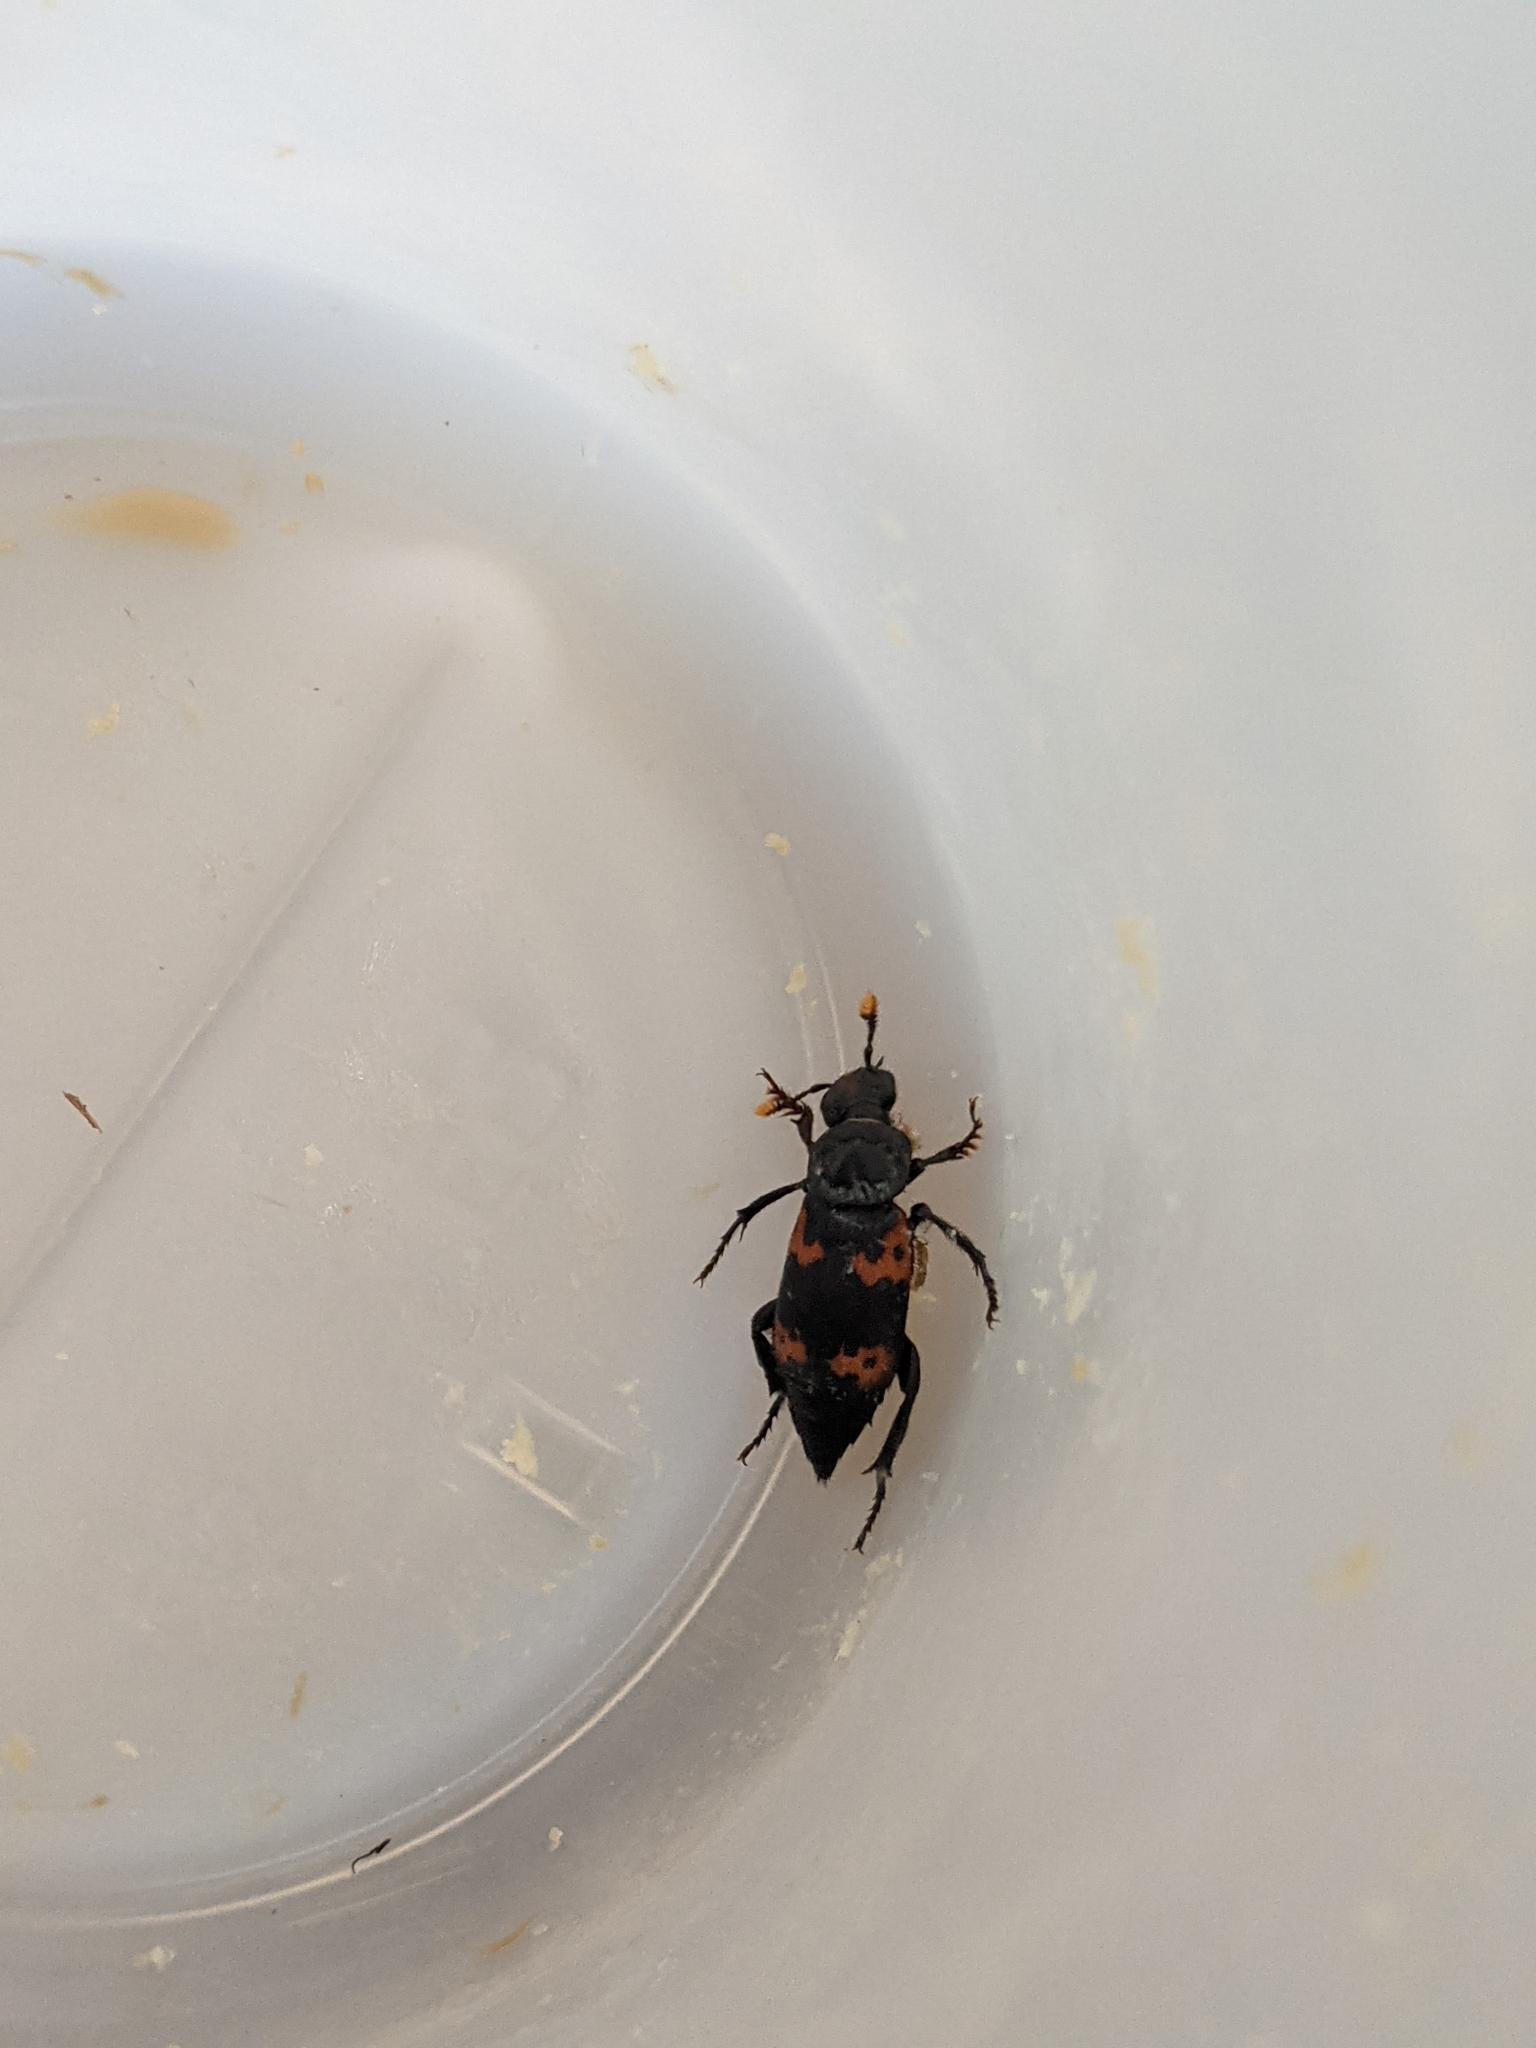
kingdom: Animalia
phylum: Arthropoda
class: Insecta
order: Coleoptera
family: Staphylinidae
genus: Nicrophorus
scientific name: Nicrophorus nepalensis
